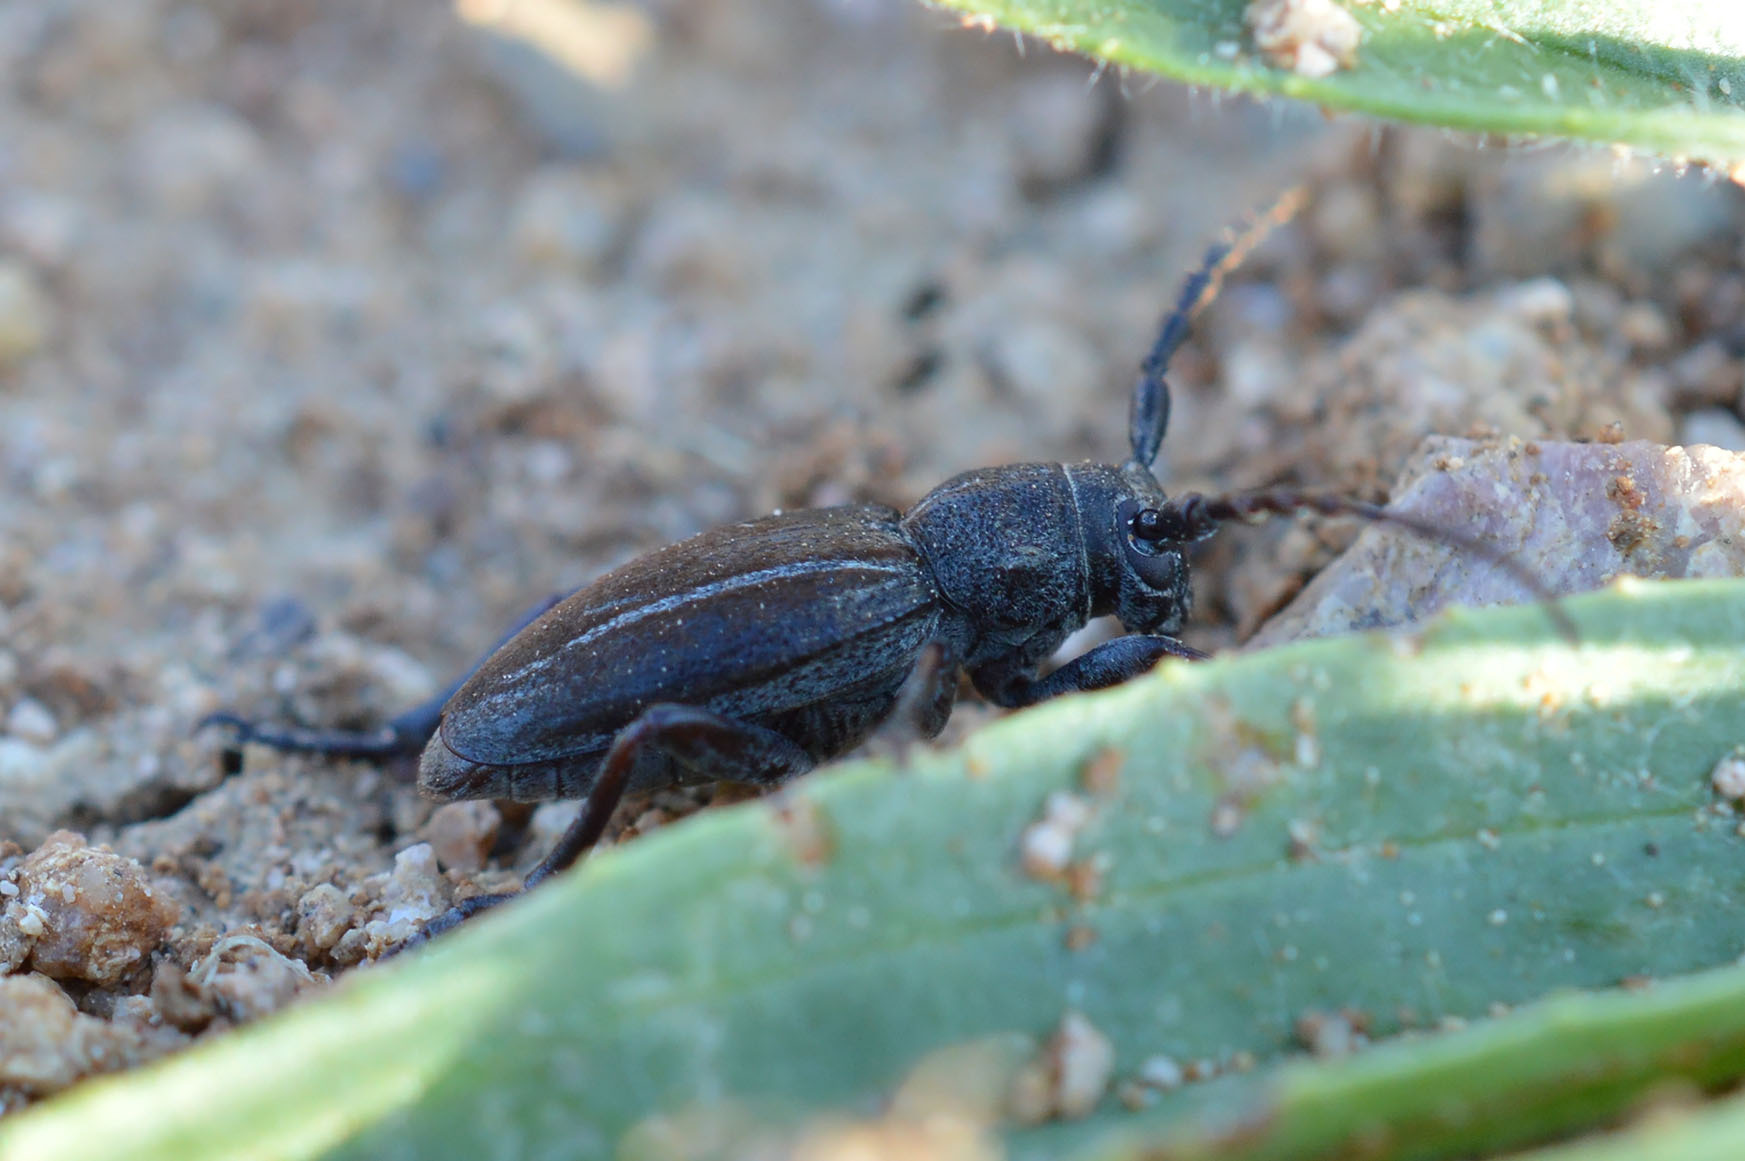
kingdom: Animalia
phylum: Arthropoda
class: Insecta
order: Coleoptera
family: Cerambycidae
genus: Neodorcadion
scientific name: Neodorcadion bilineatum
